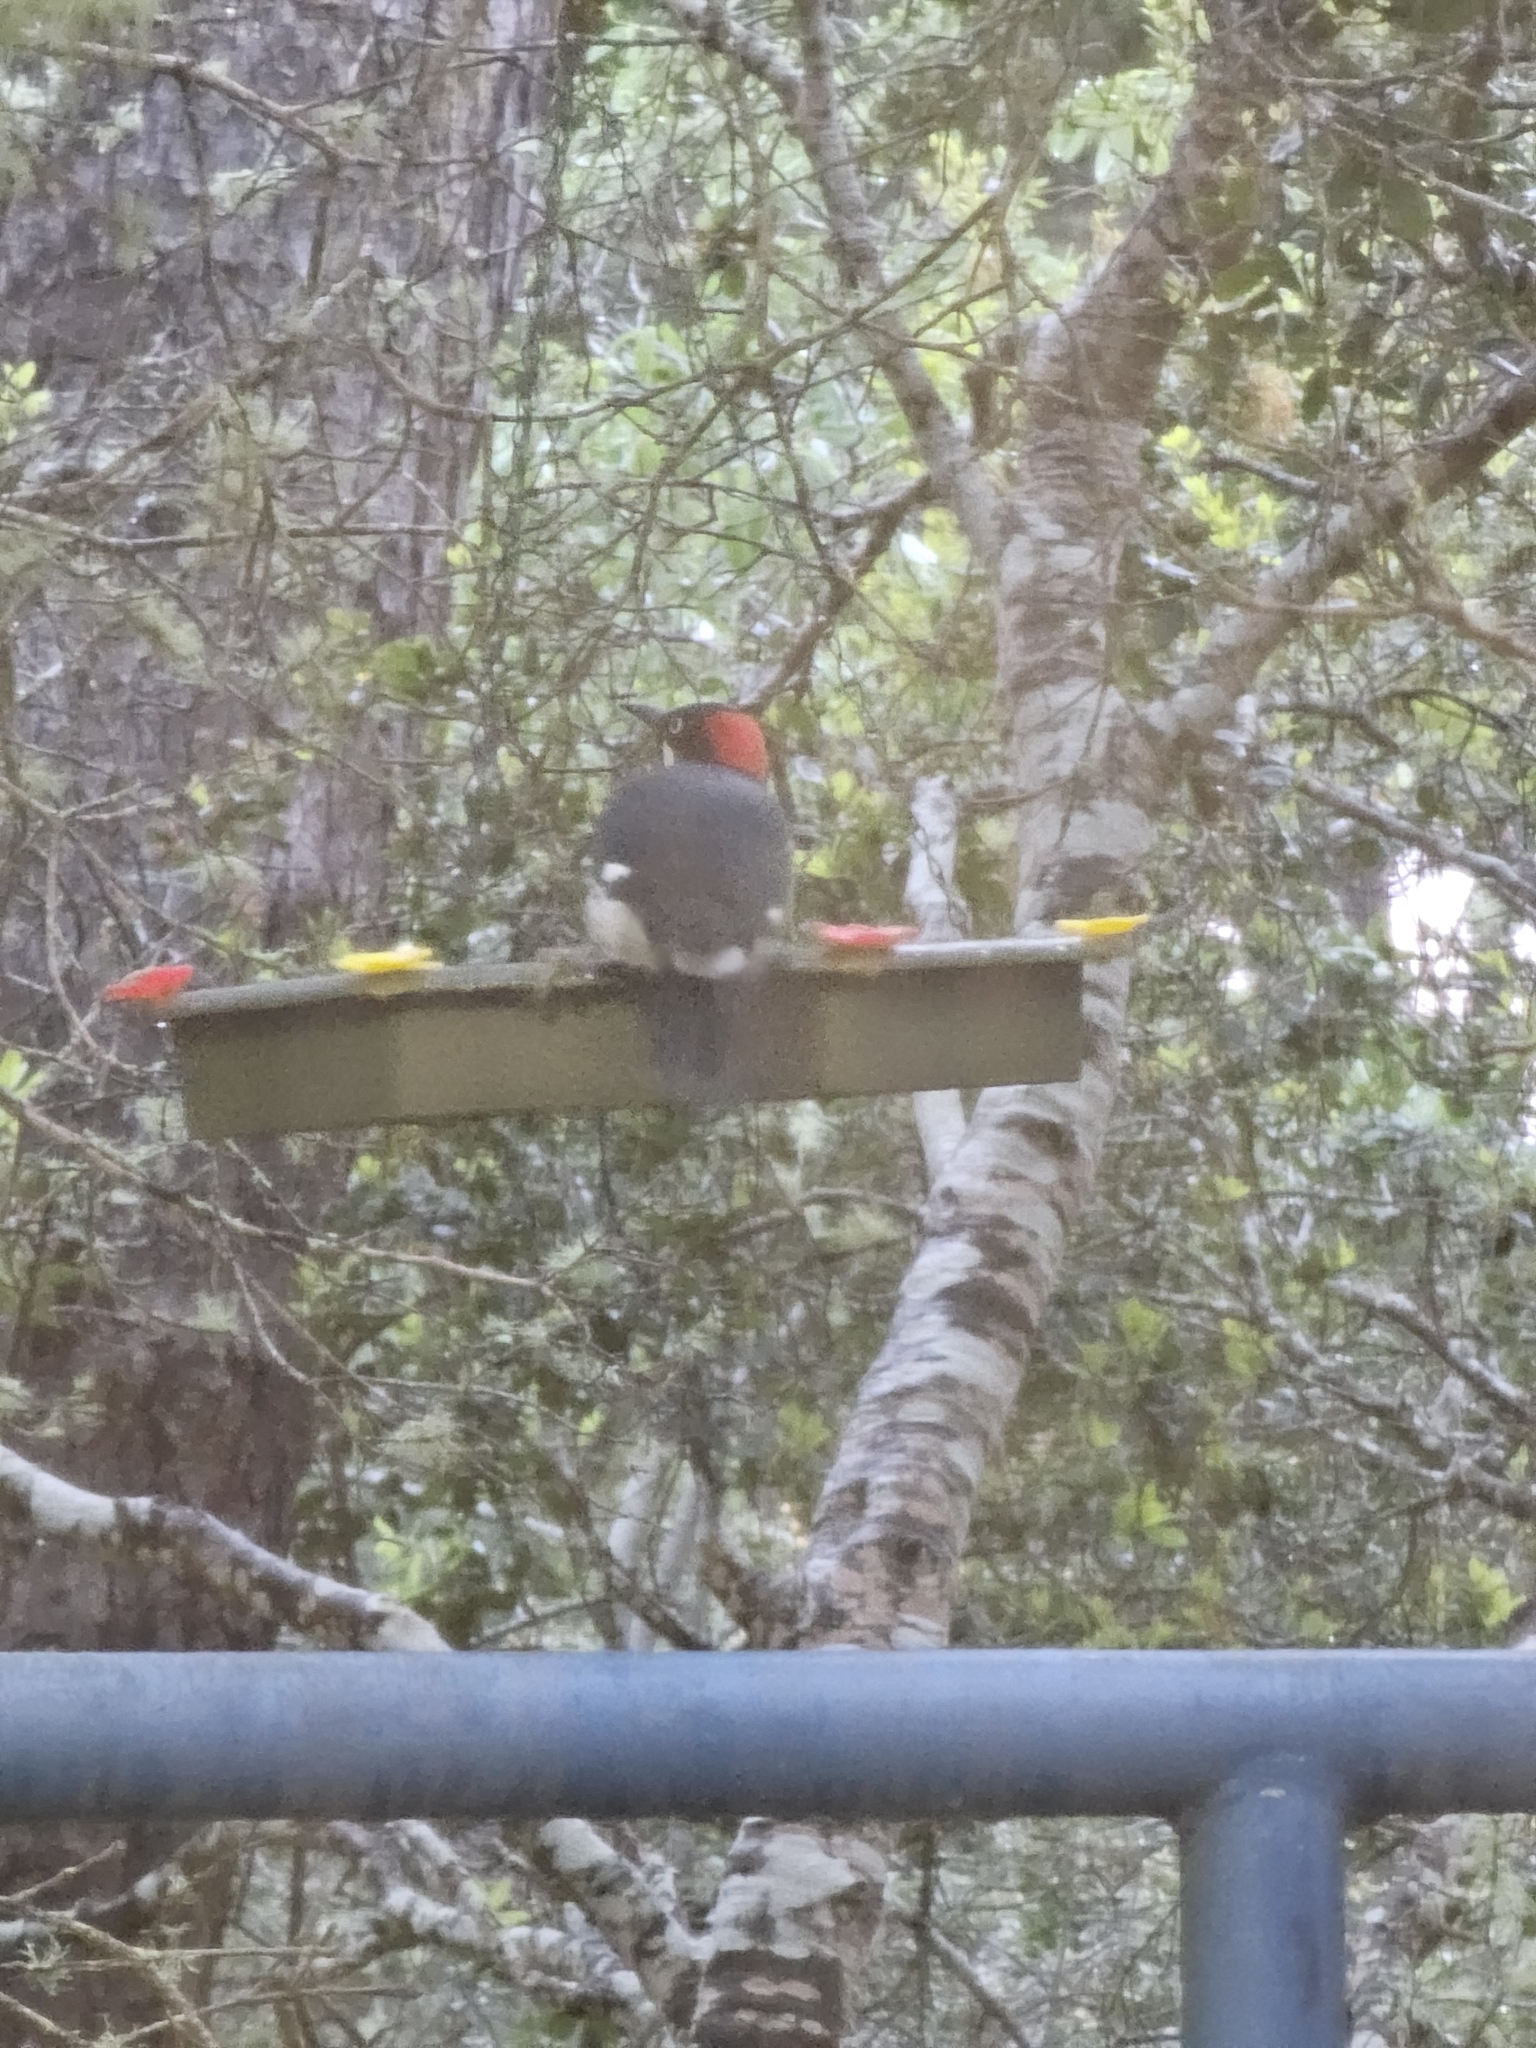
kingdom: Animalia
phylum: Chordata
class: Aves
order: Piciformes
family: Picidae
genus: Melanerpes
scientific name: Melanerpes formicivorus
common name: Acorn woodpecker
